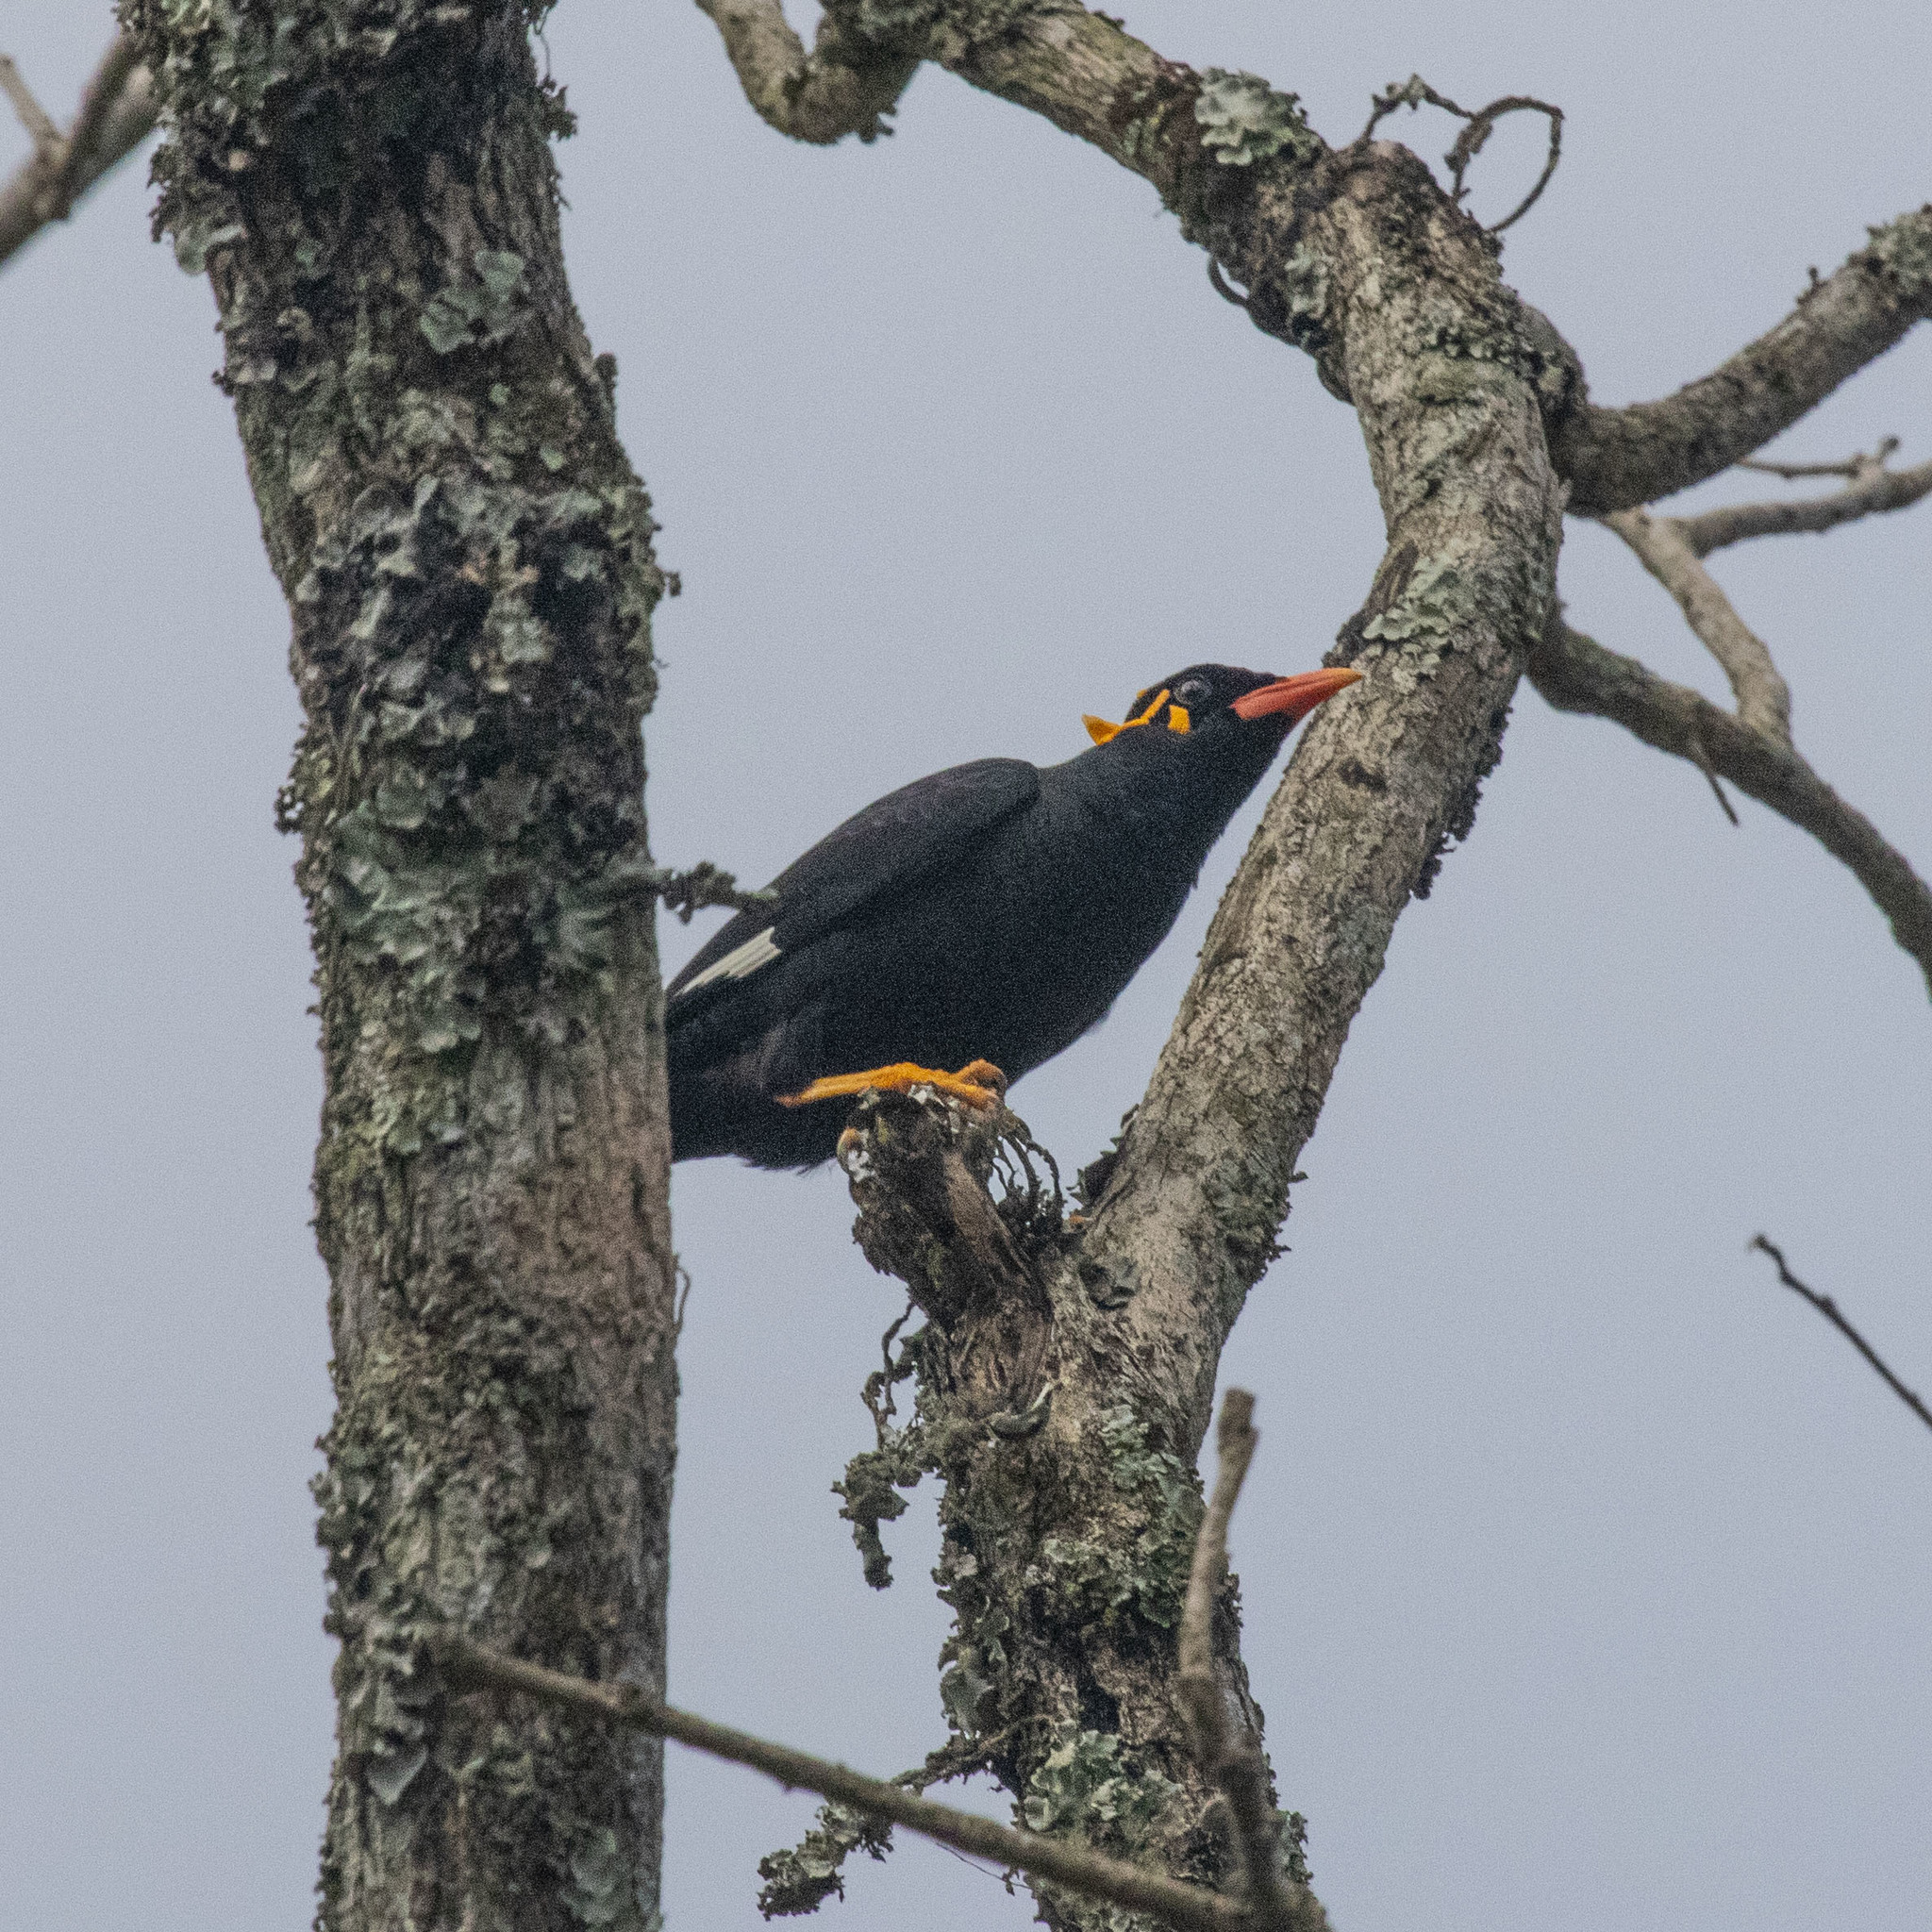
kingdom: Animalia
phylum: Chordata
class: Aves
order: Passeriformes
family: Sturnidae
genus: Gracula
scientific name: Gracula indica
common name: Southern hill myna
